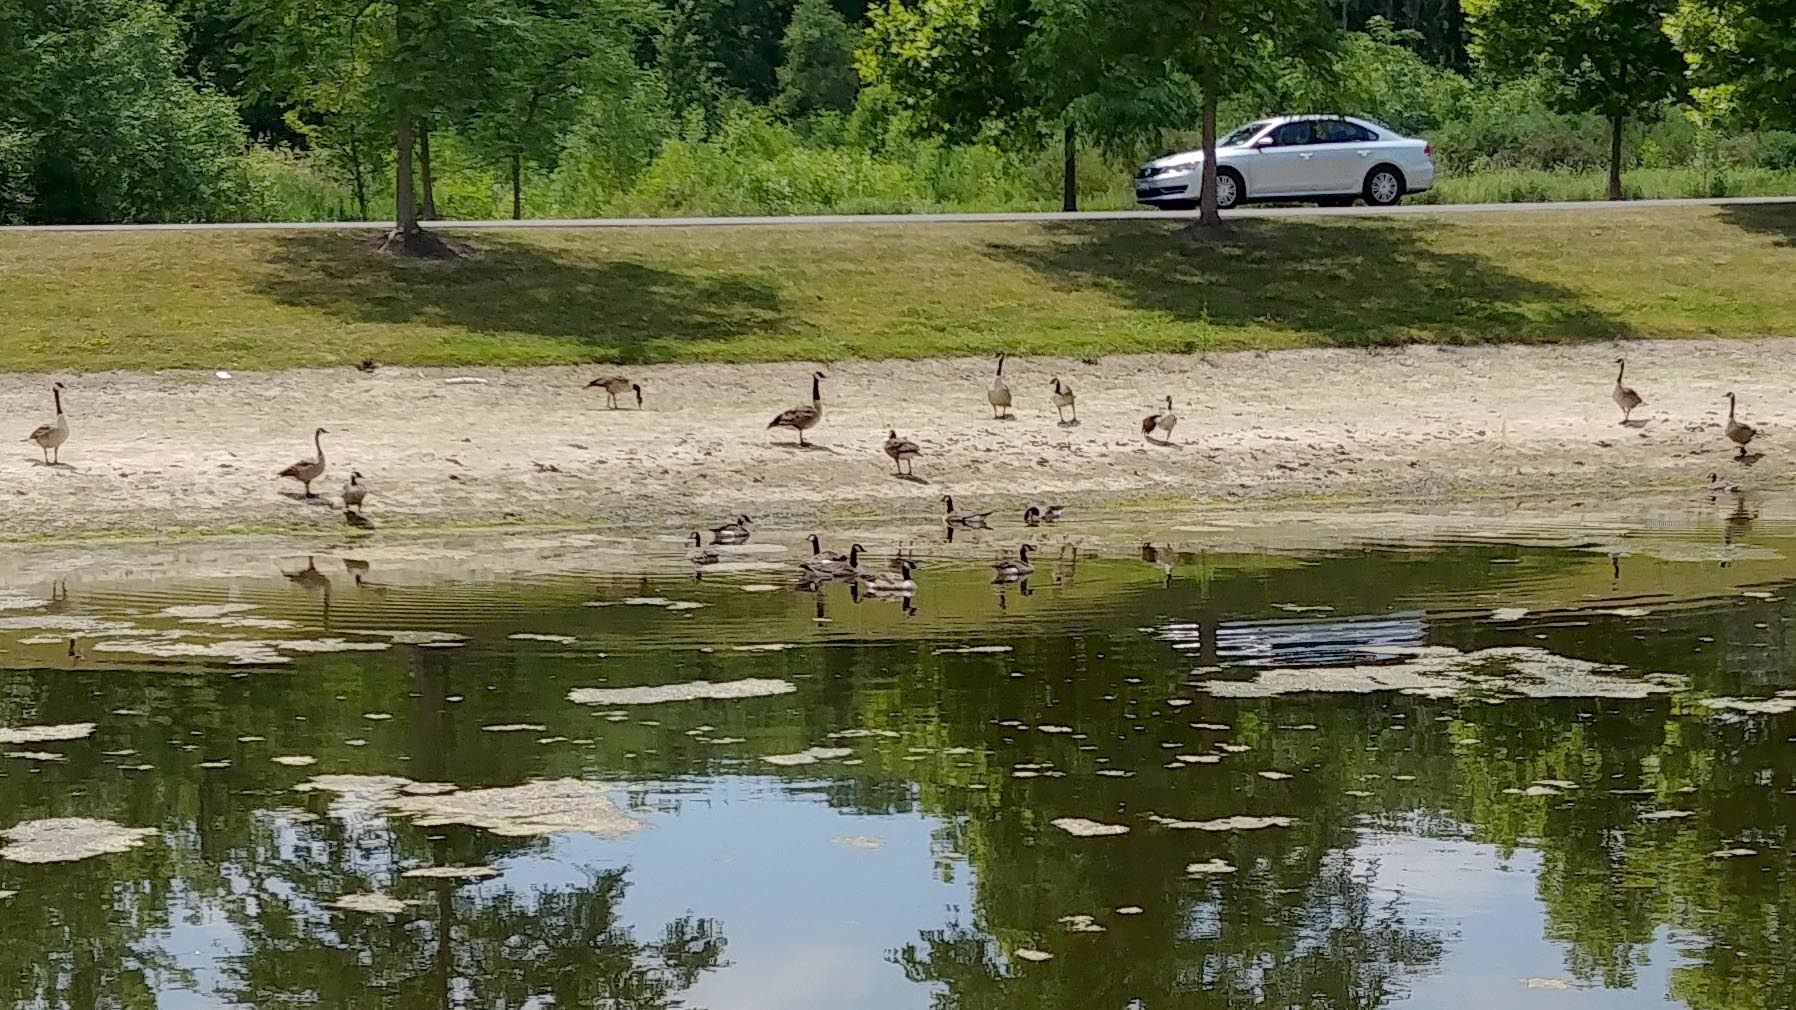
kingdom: Animalia
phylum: Chordata
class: Aves
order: Anseriformes
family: Anatidae
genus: Branta
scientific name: Branta canadensis
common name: Canada goose
